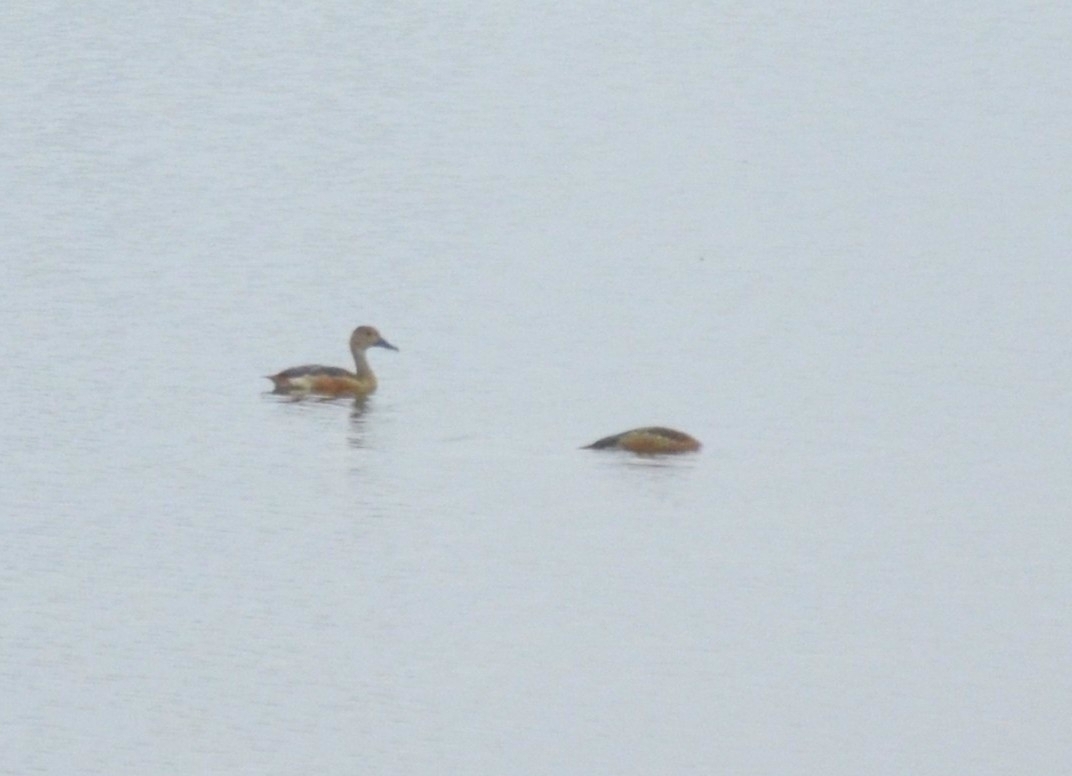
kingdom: Animalia
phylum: Chordata
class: Aves
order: Anseriformes
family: Anatidae
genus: Dendrocygna
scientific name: Dendrocygna javanica
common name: Lesser whistling-duck
